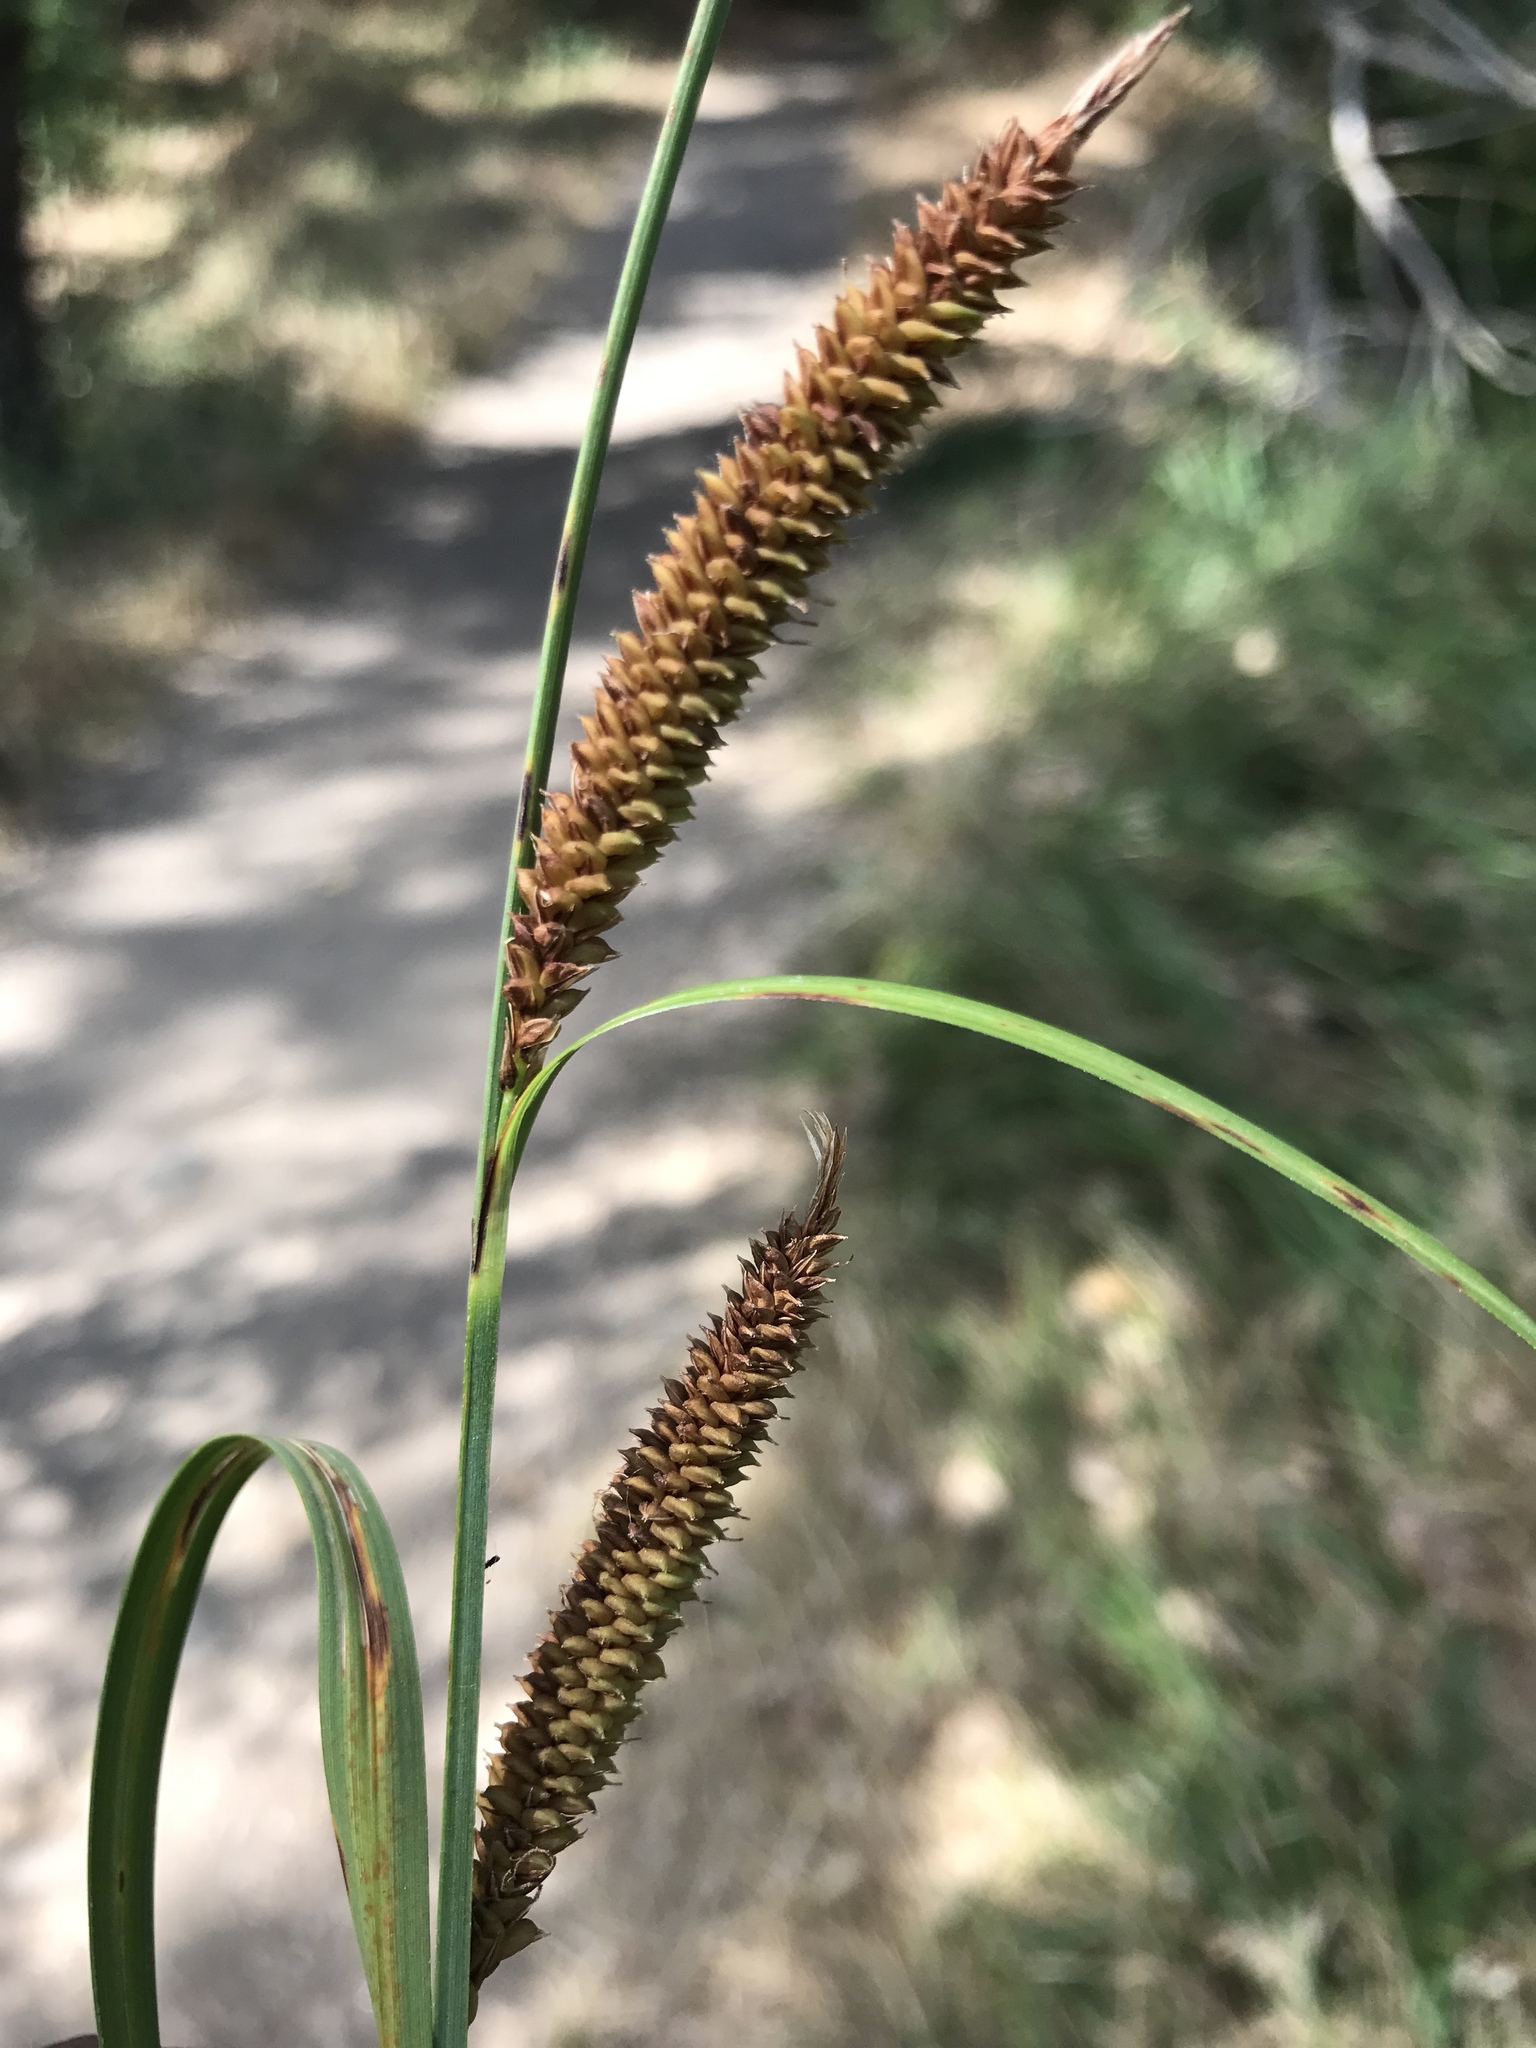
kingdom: Plantae
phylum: Tracheophyta
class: Liliopsida
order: Poales
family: Cyperaceae
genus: Carex
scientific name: Carex barbarae
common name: Santa barbara sedge
